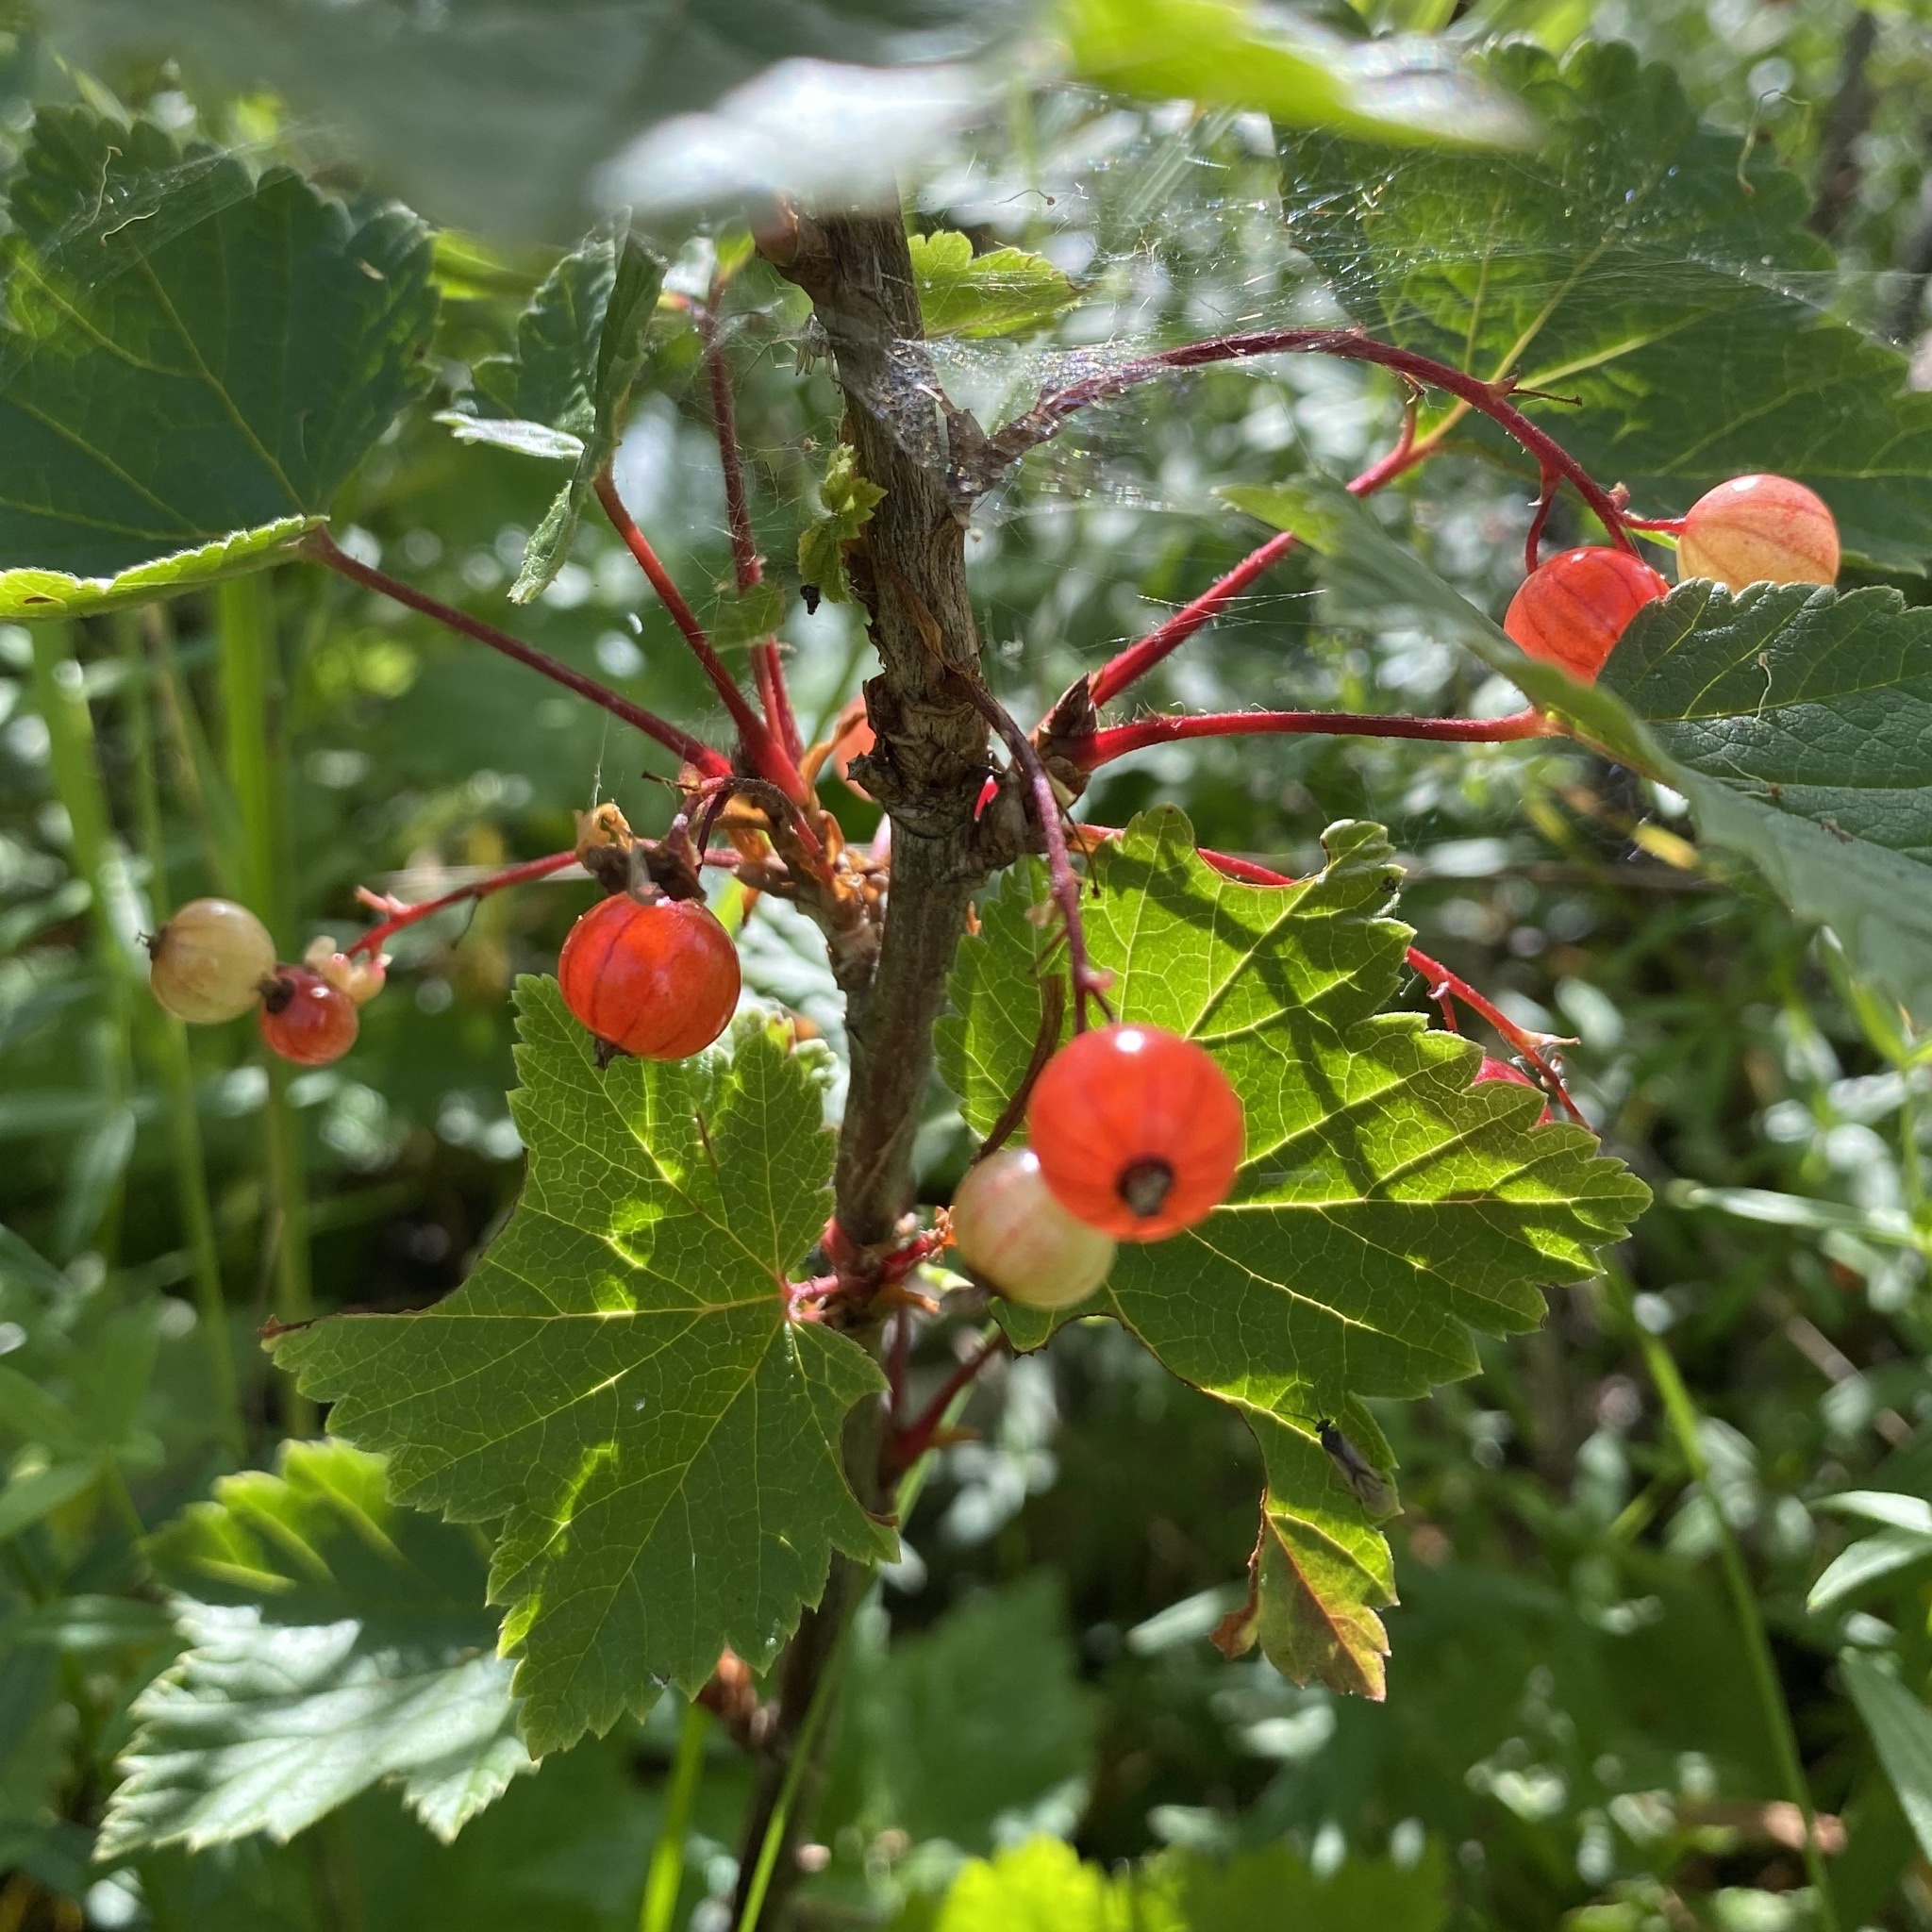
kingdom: Plantae
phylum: Tracheophyta
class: Magnoliopsida
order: Saxifragales
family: Grossulariaceae
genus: Ribes
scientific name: Ribes rubrum
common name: Red currant
